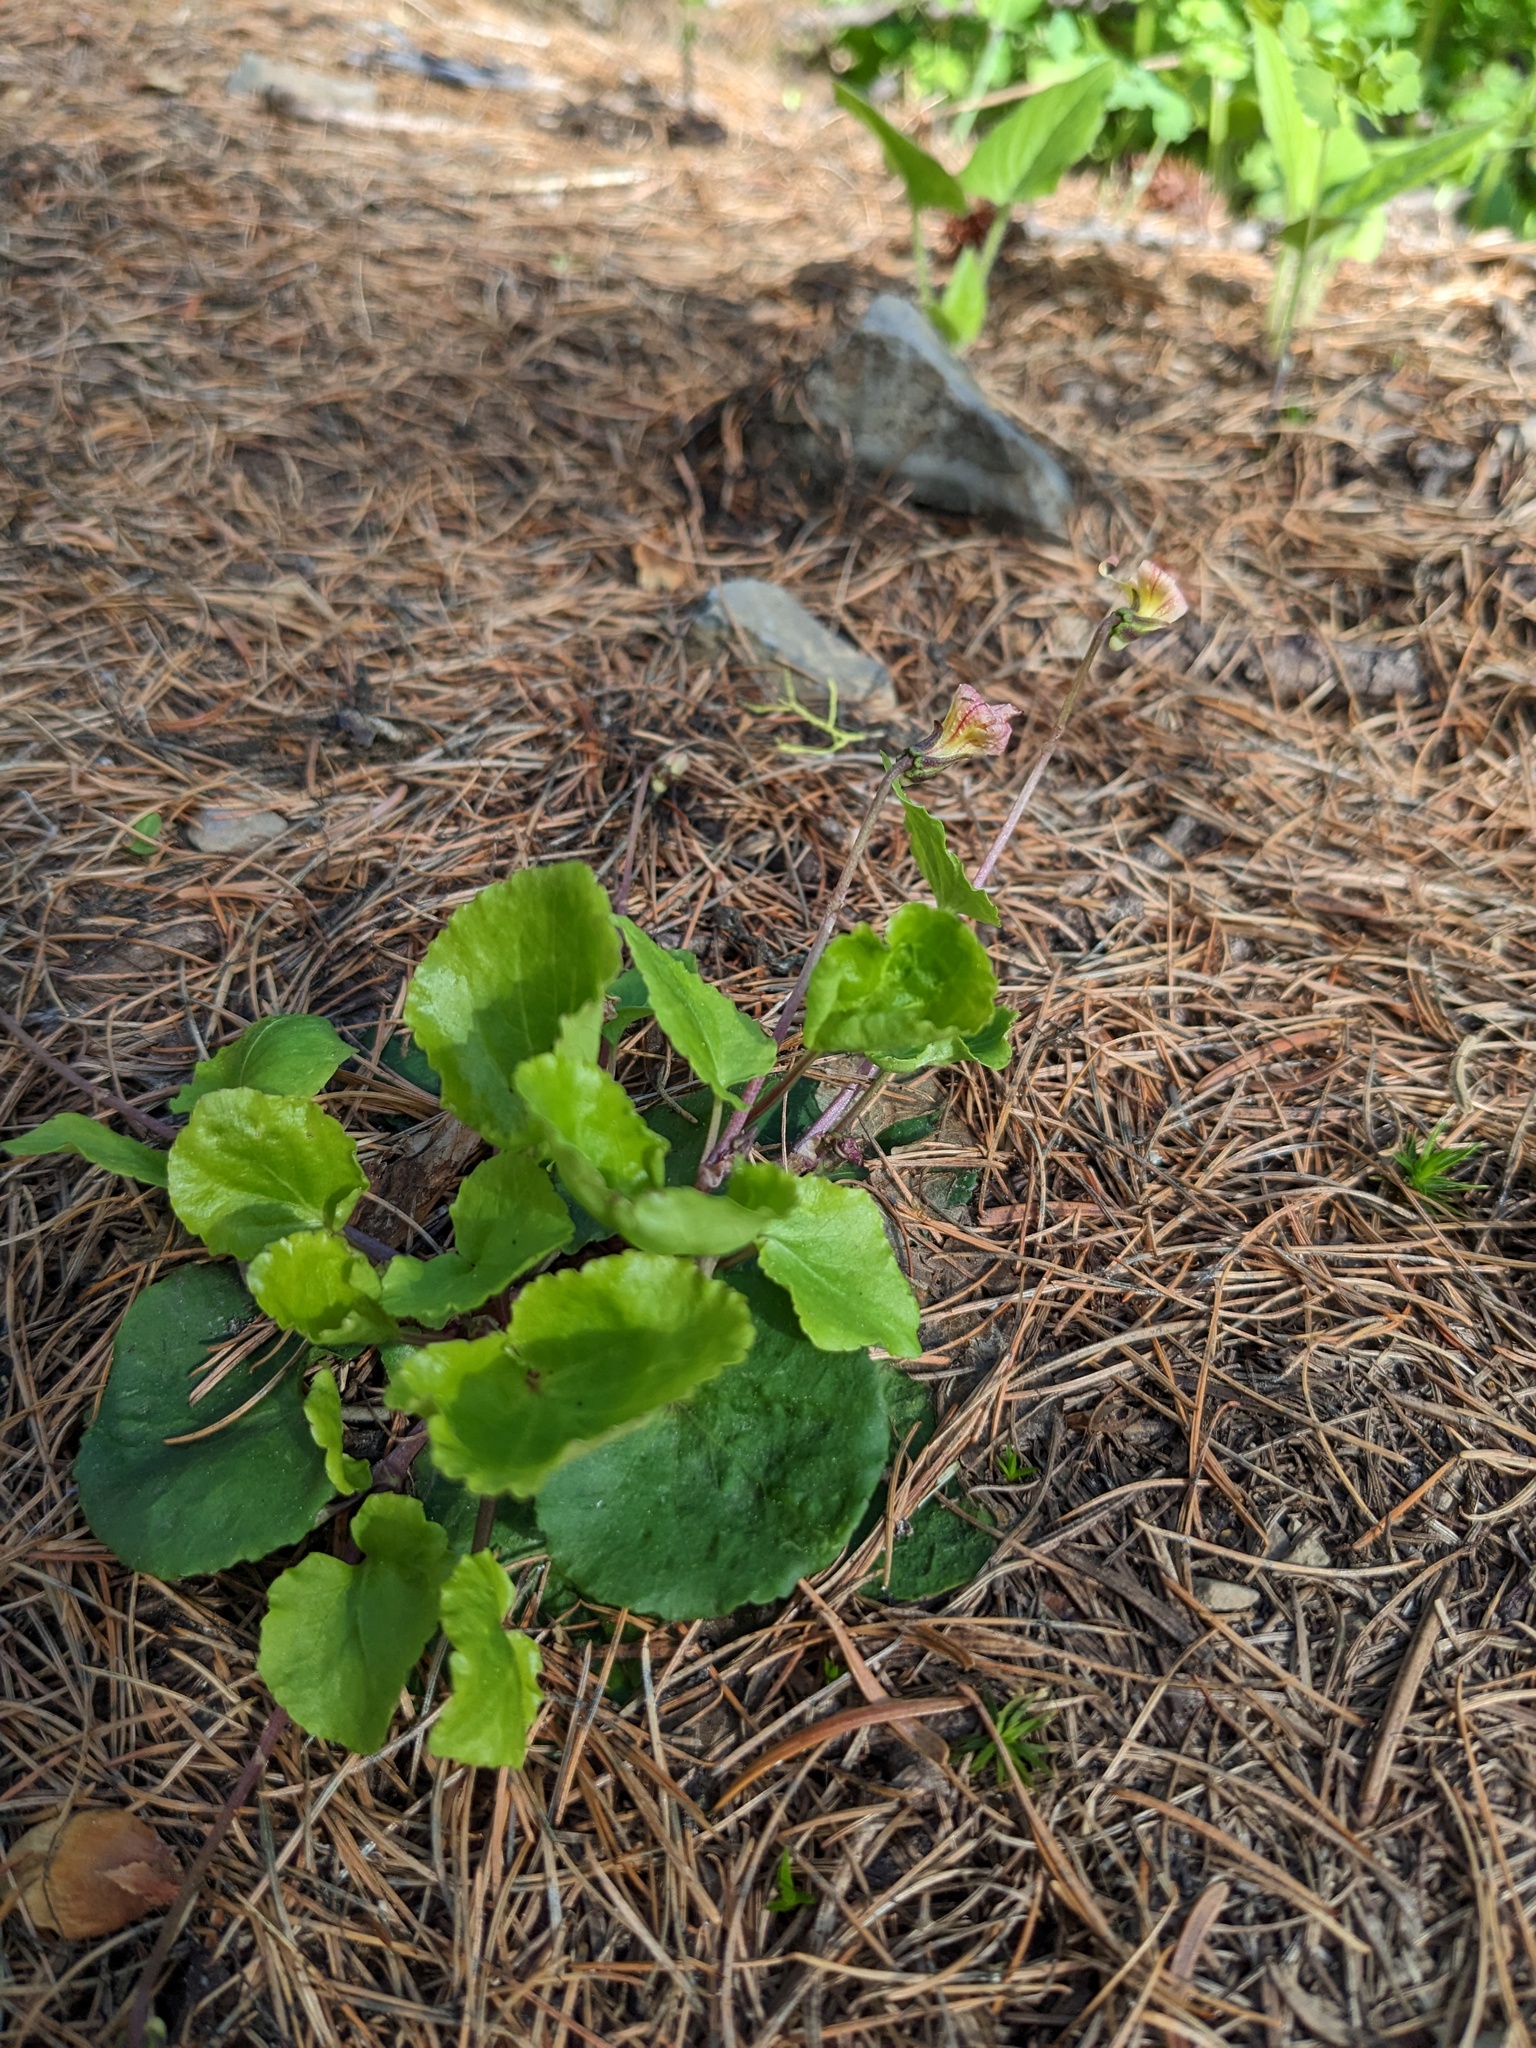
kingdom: Plantae
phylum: Tracheophyta
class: Magnoliopsida
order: Malpighiales
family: Violaceae
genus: Viola
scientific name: Viola orbiculata
